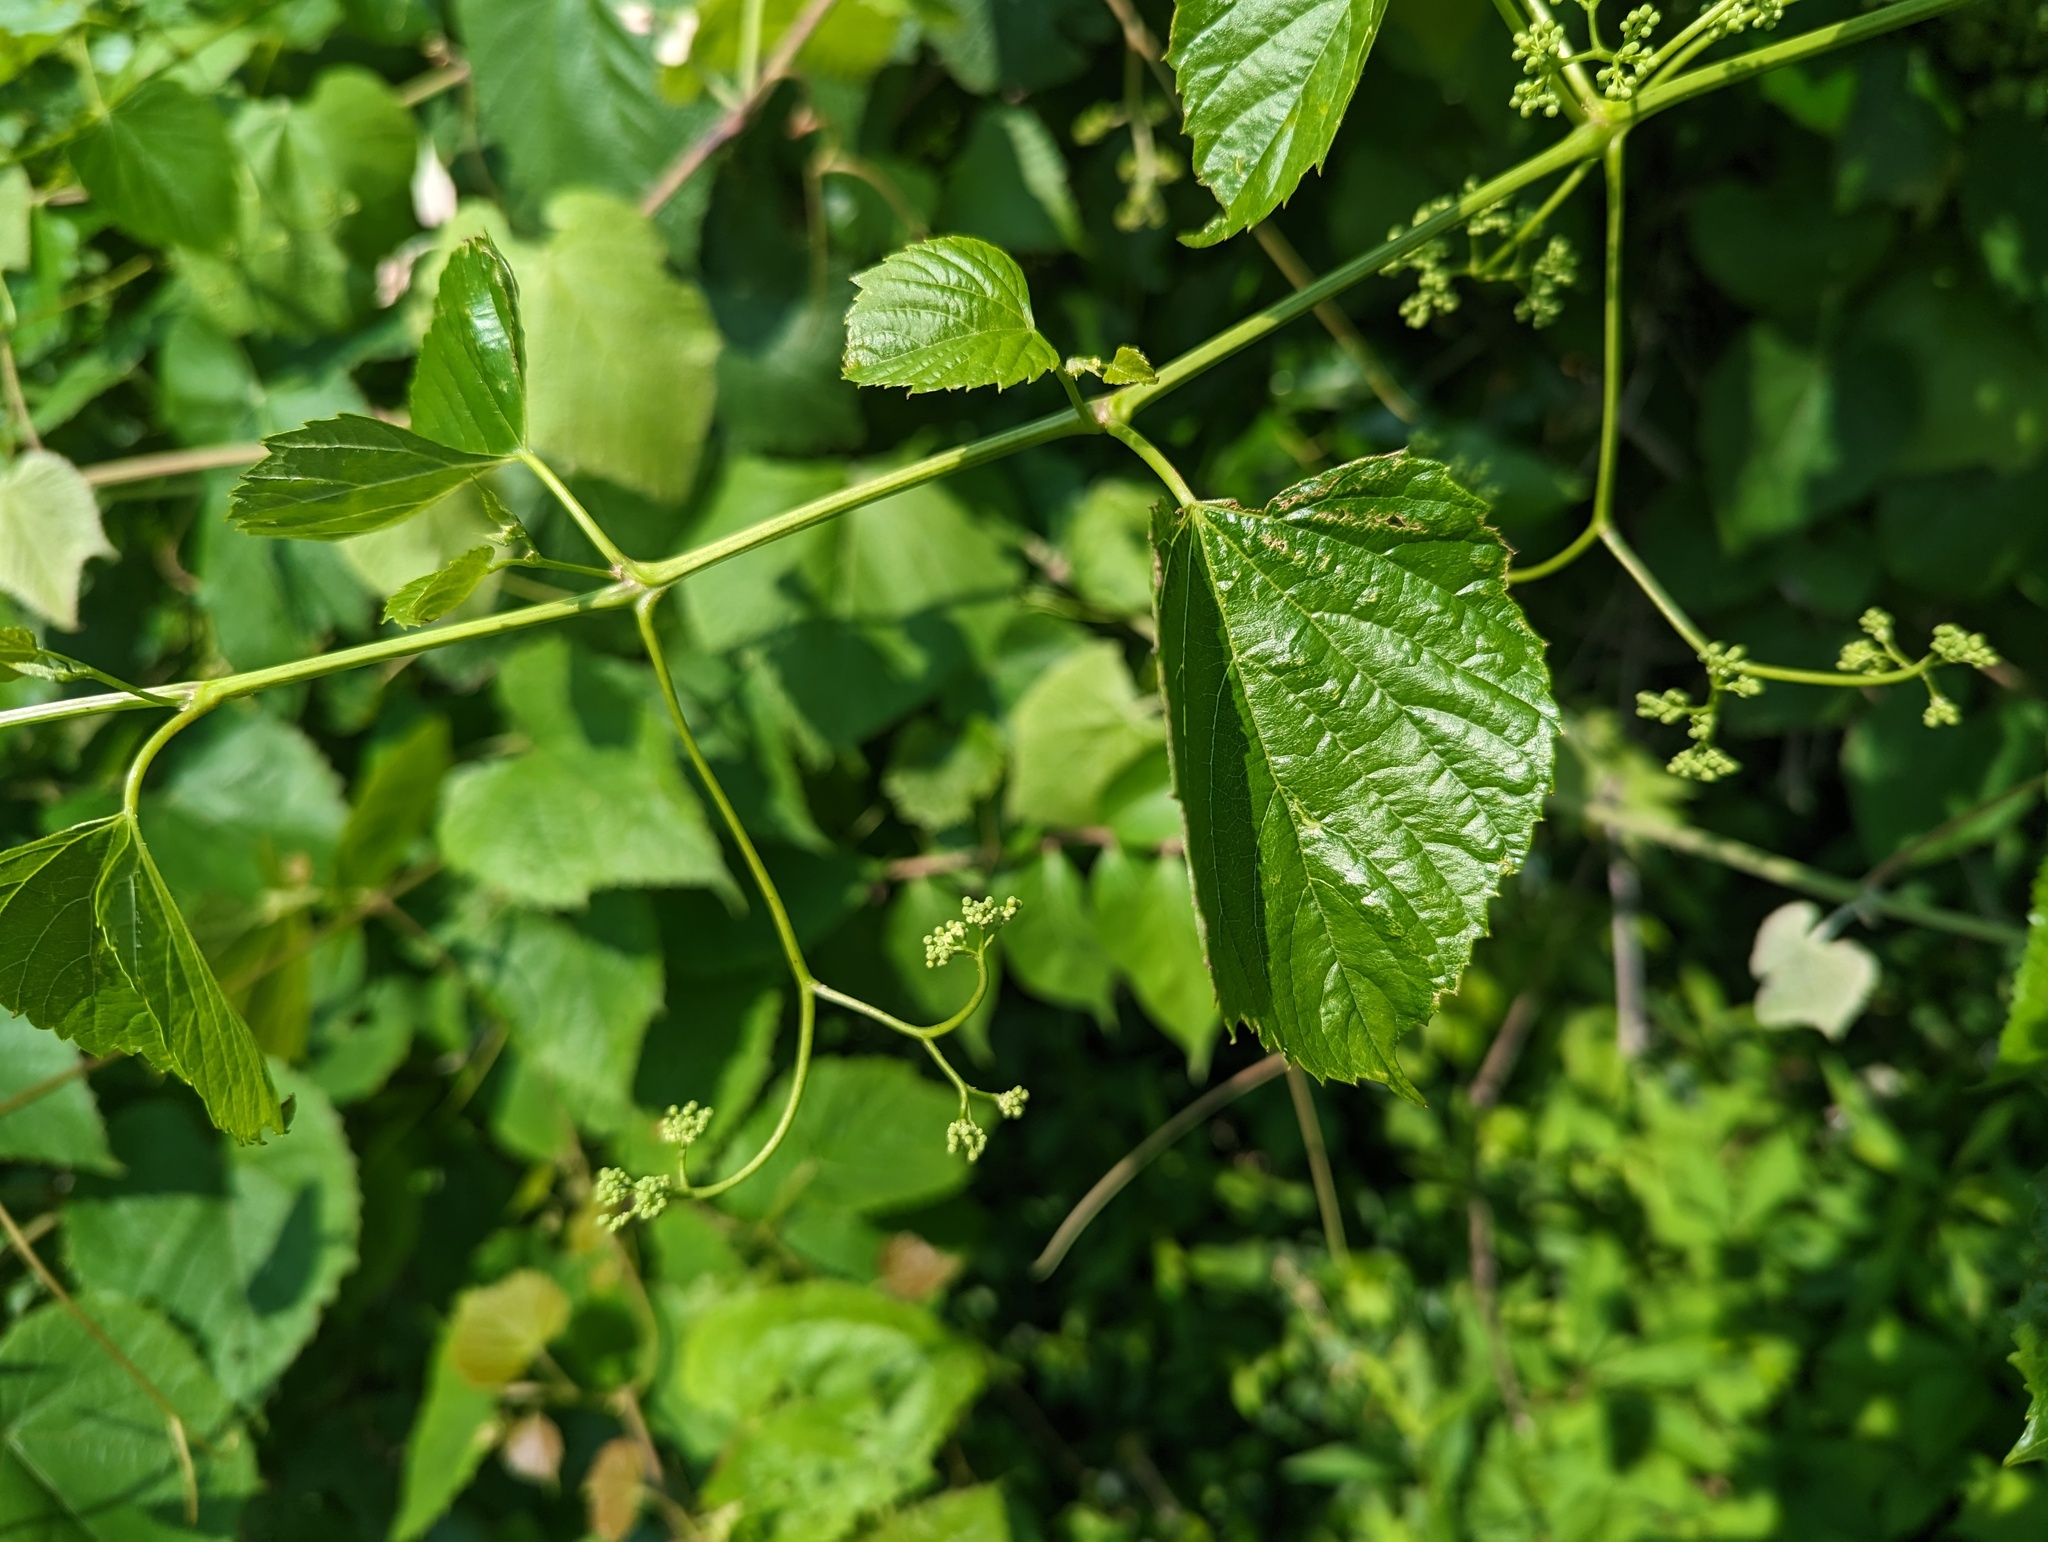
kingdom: Plantae
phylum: Tracheophyta
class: Magnoliopsida
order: Vitales
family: Vitaceae
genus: Ampelopsis
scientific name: Ampelopsis cordata
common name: Heart-leaf ampelopsis
